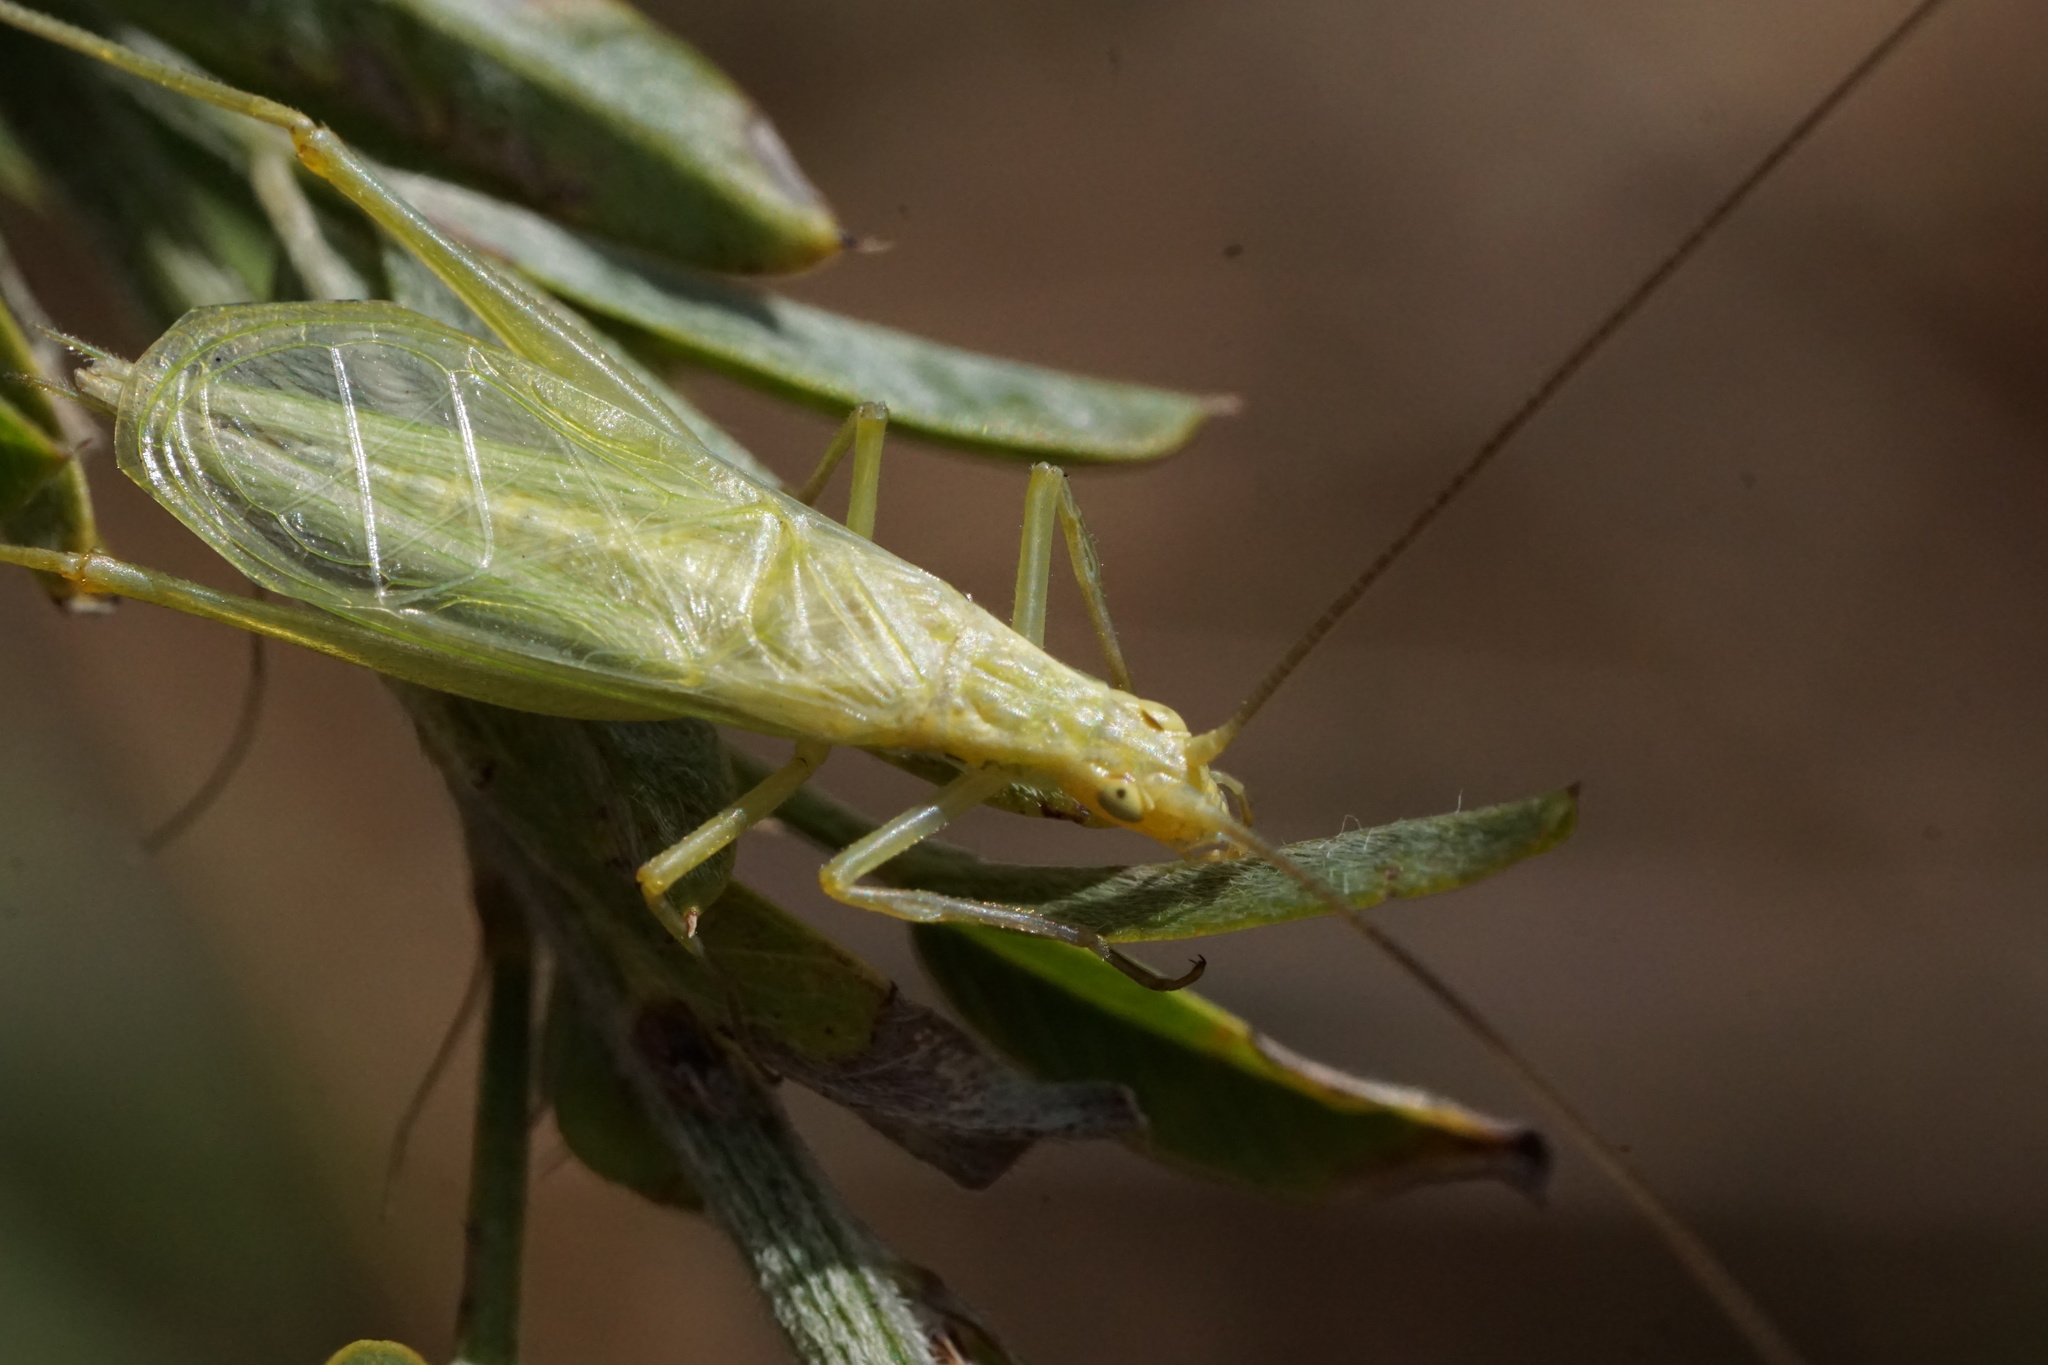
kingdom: Animalia
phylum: Arthropoda
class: Insecta
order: Orthoptera
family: Gryllidae
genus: Oecanthus
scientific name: Oecanthus quadripunctatus
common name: Four-spotted tree cricket
